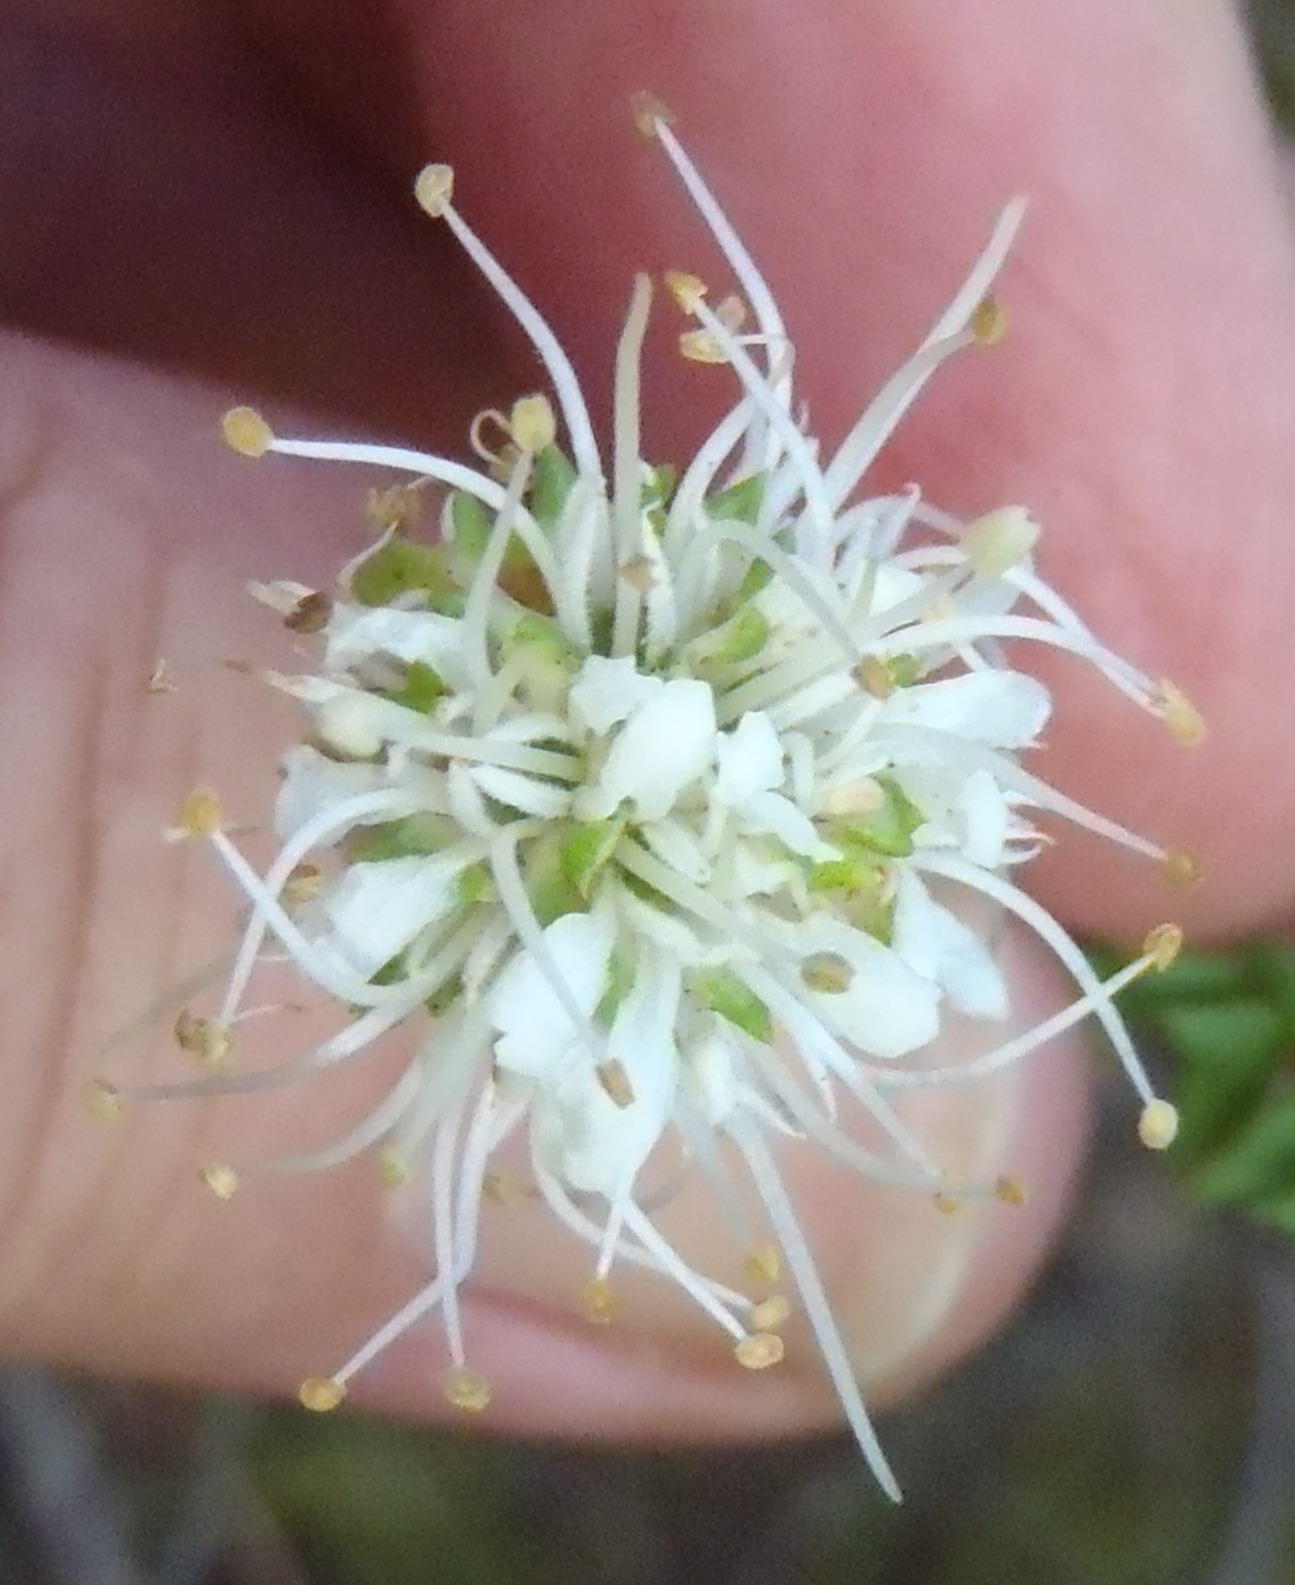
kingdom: Plantae
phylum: Tracheophyta
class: Magnoliopsida
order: Sapindales
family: Rutaceae
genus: Agathosma
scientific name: Agathosma apiculata
